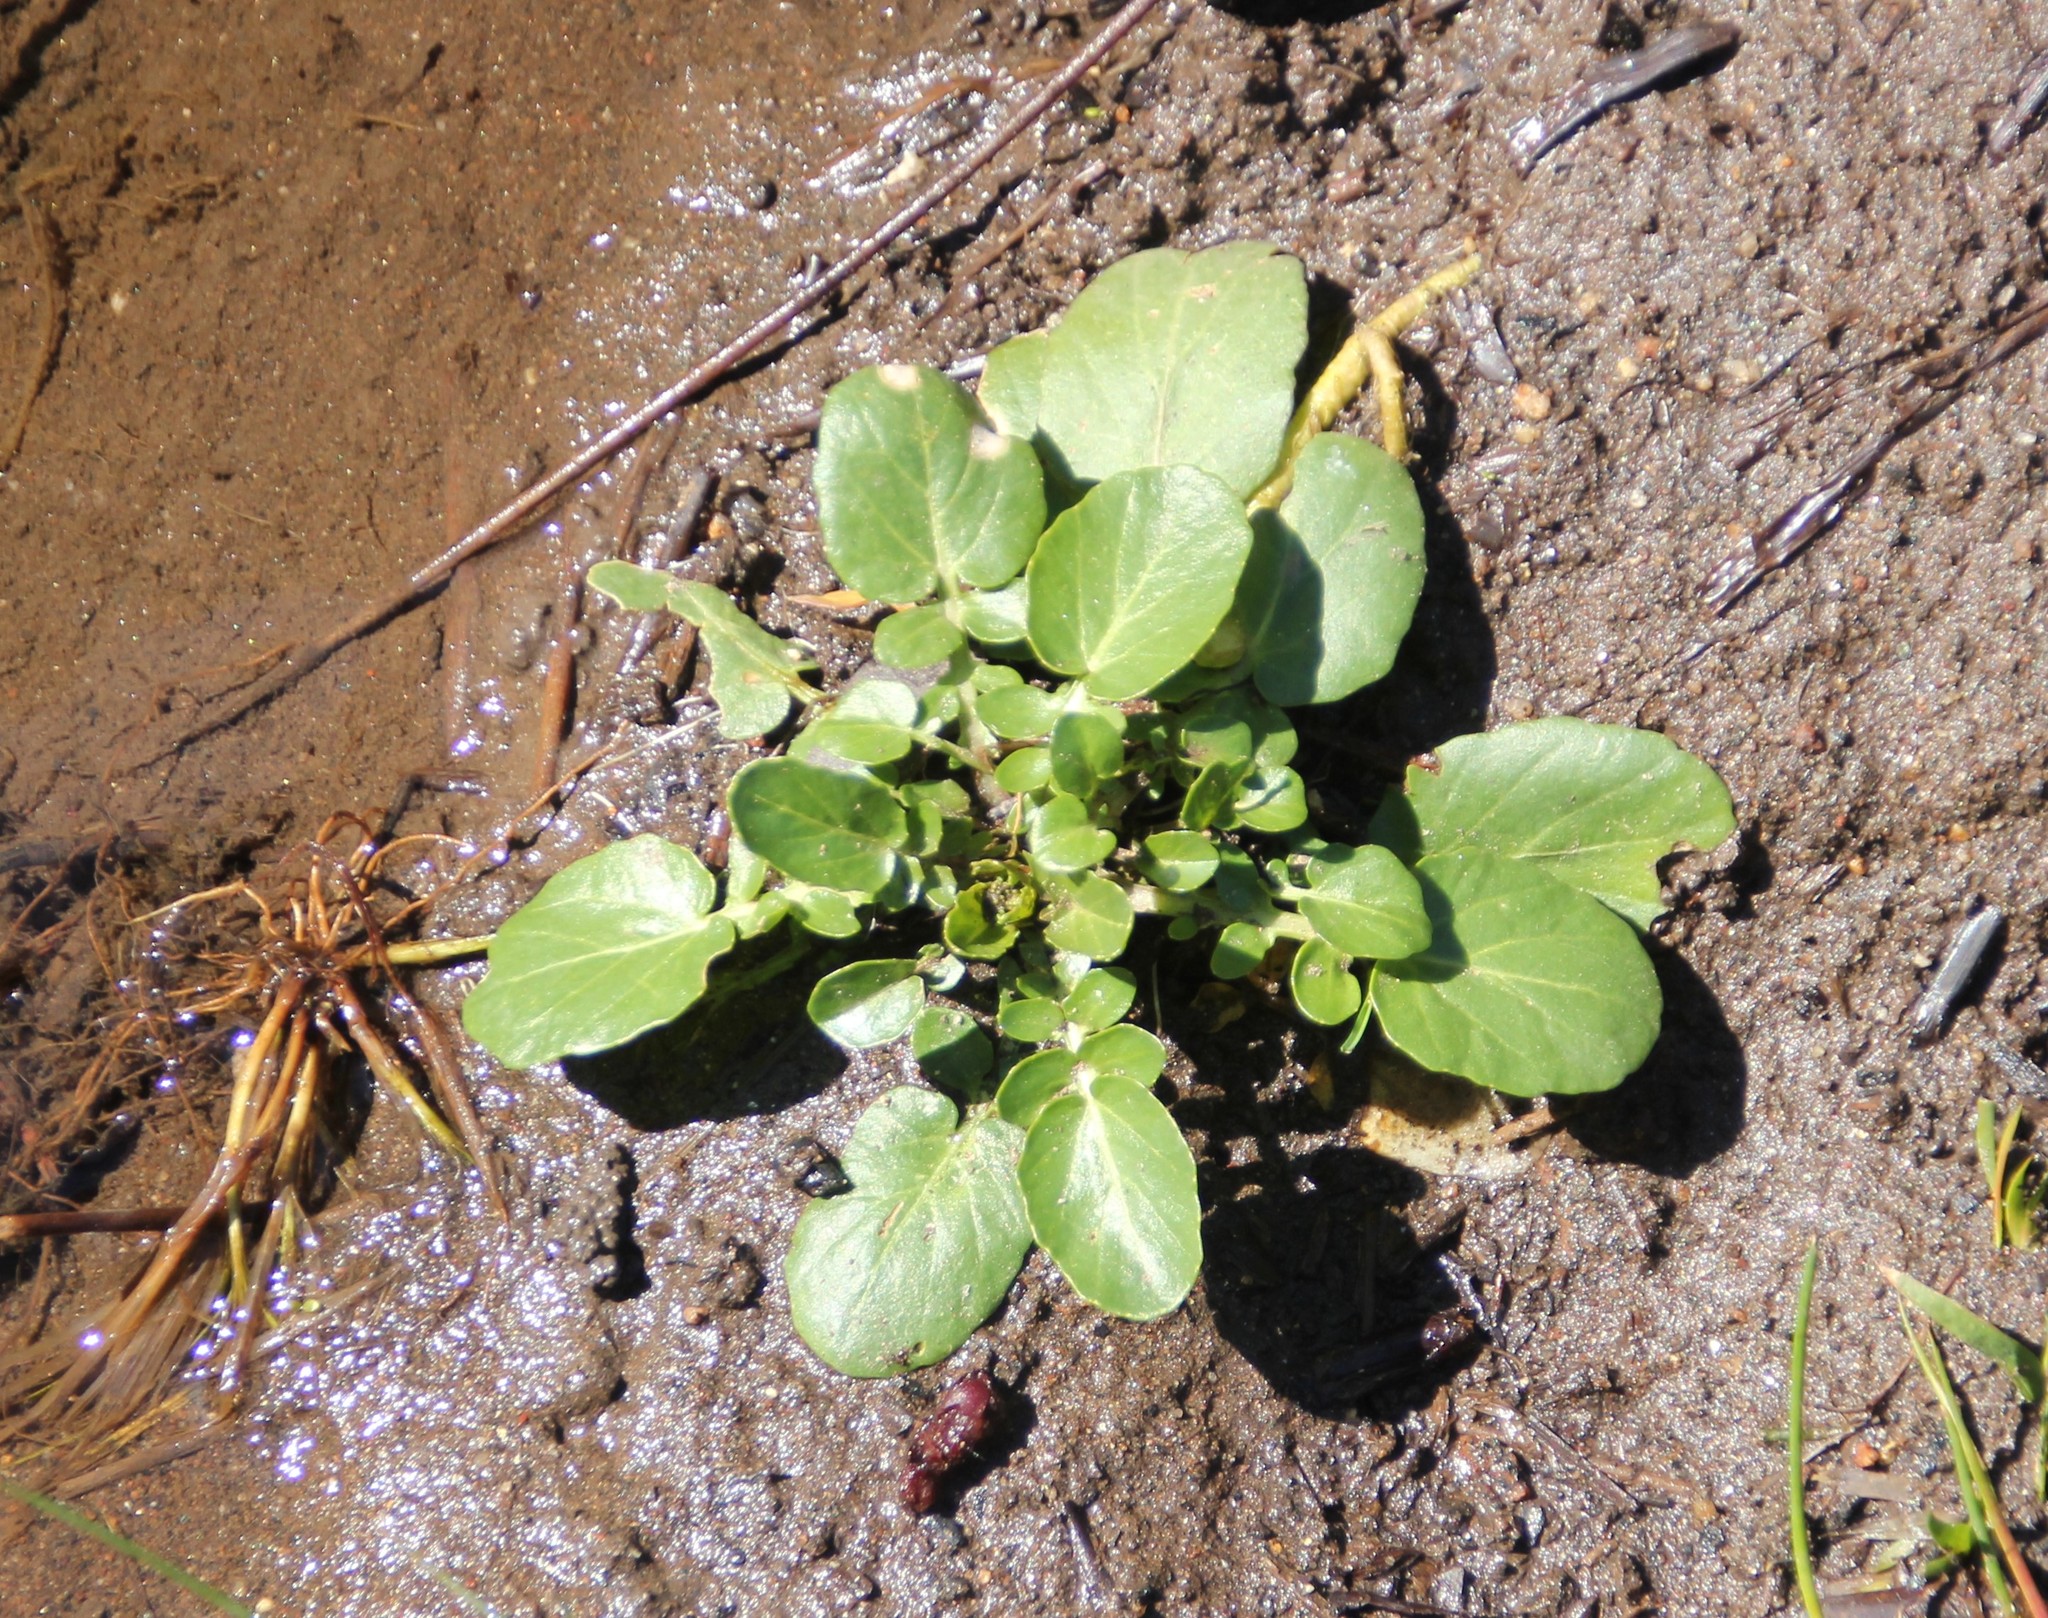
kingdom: Plantae
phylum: Tracheophyta
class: Magnoliopsida
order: Brassicales
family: Brassicaceae
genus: Nasturtium
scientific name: Nasturtium officinale
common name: Watercress
